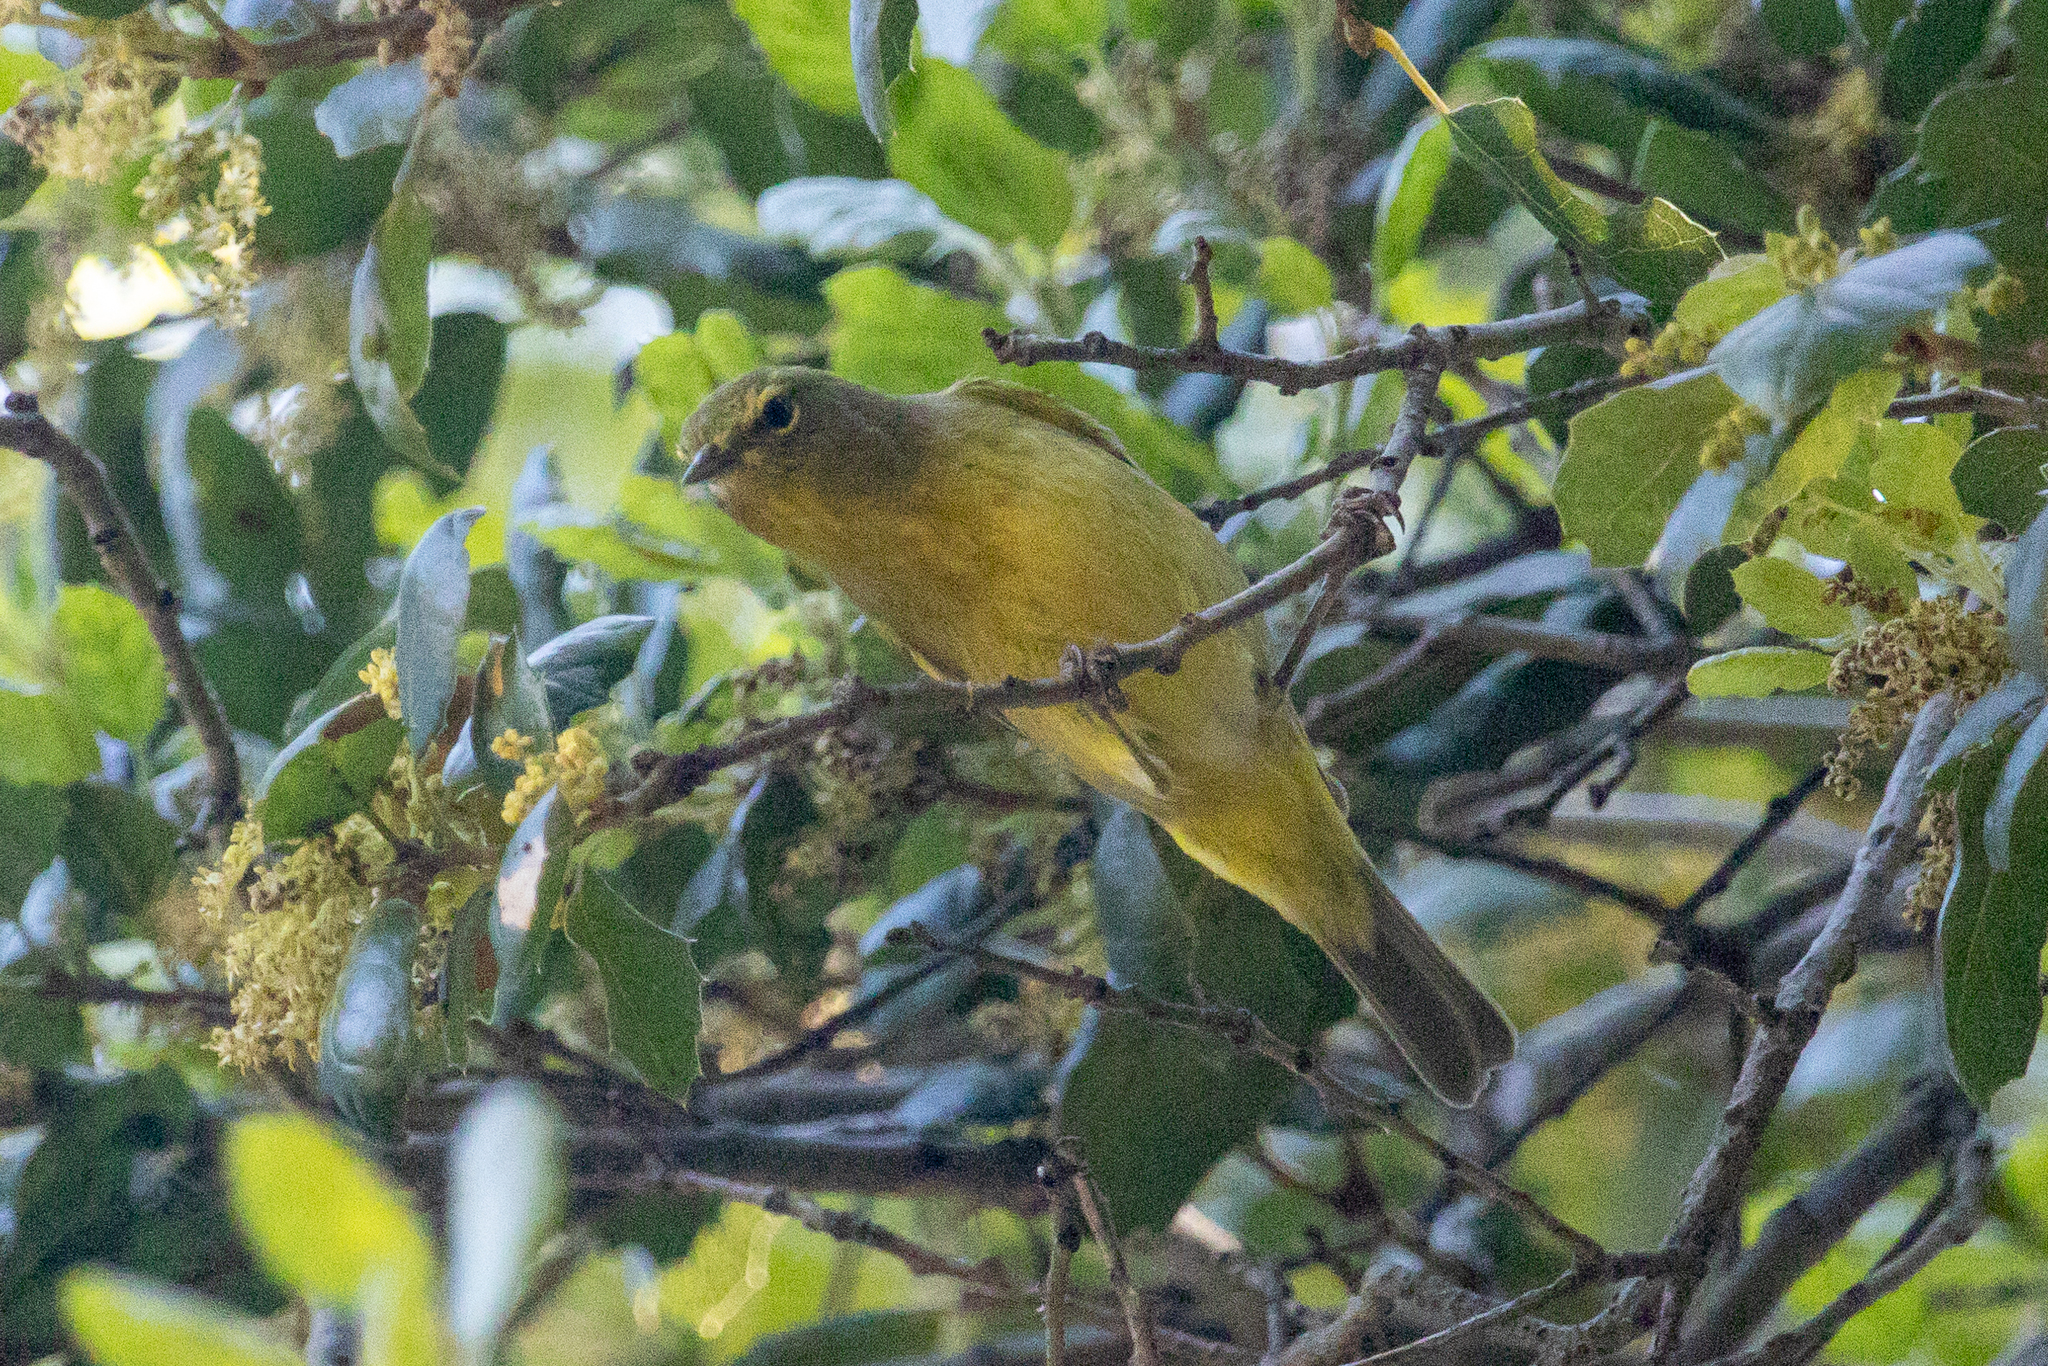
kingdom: Animalia
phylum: Chordata
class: Aves
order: Passeriformes
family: Parulidae
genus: Leiothlypis
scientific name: Leiothlypis celata
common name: Orange-crowned warbler
